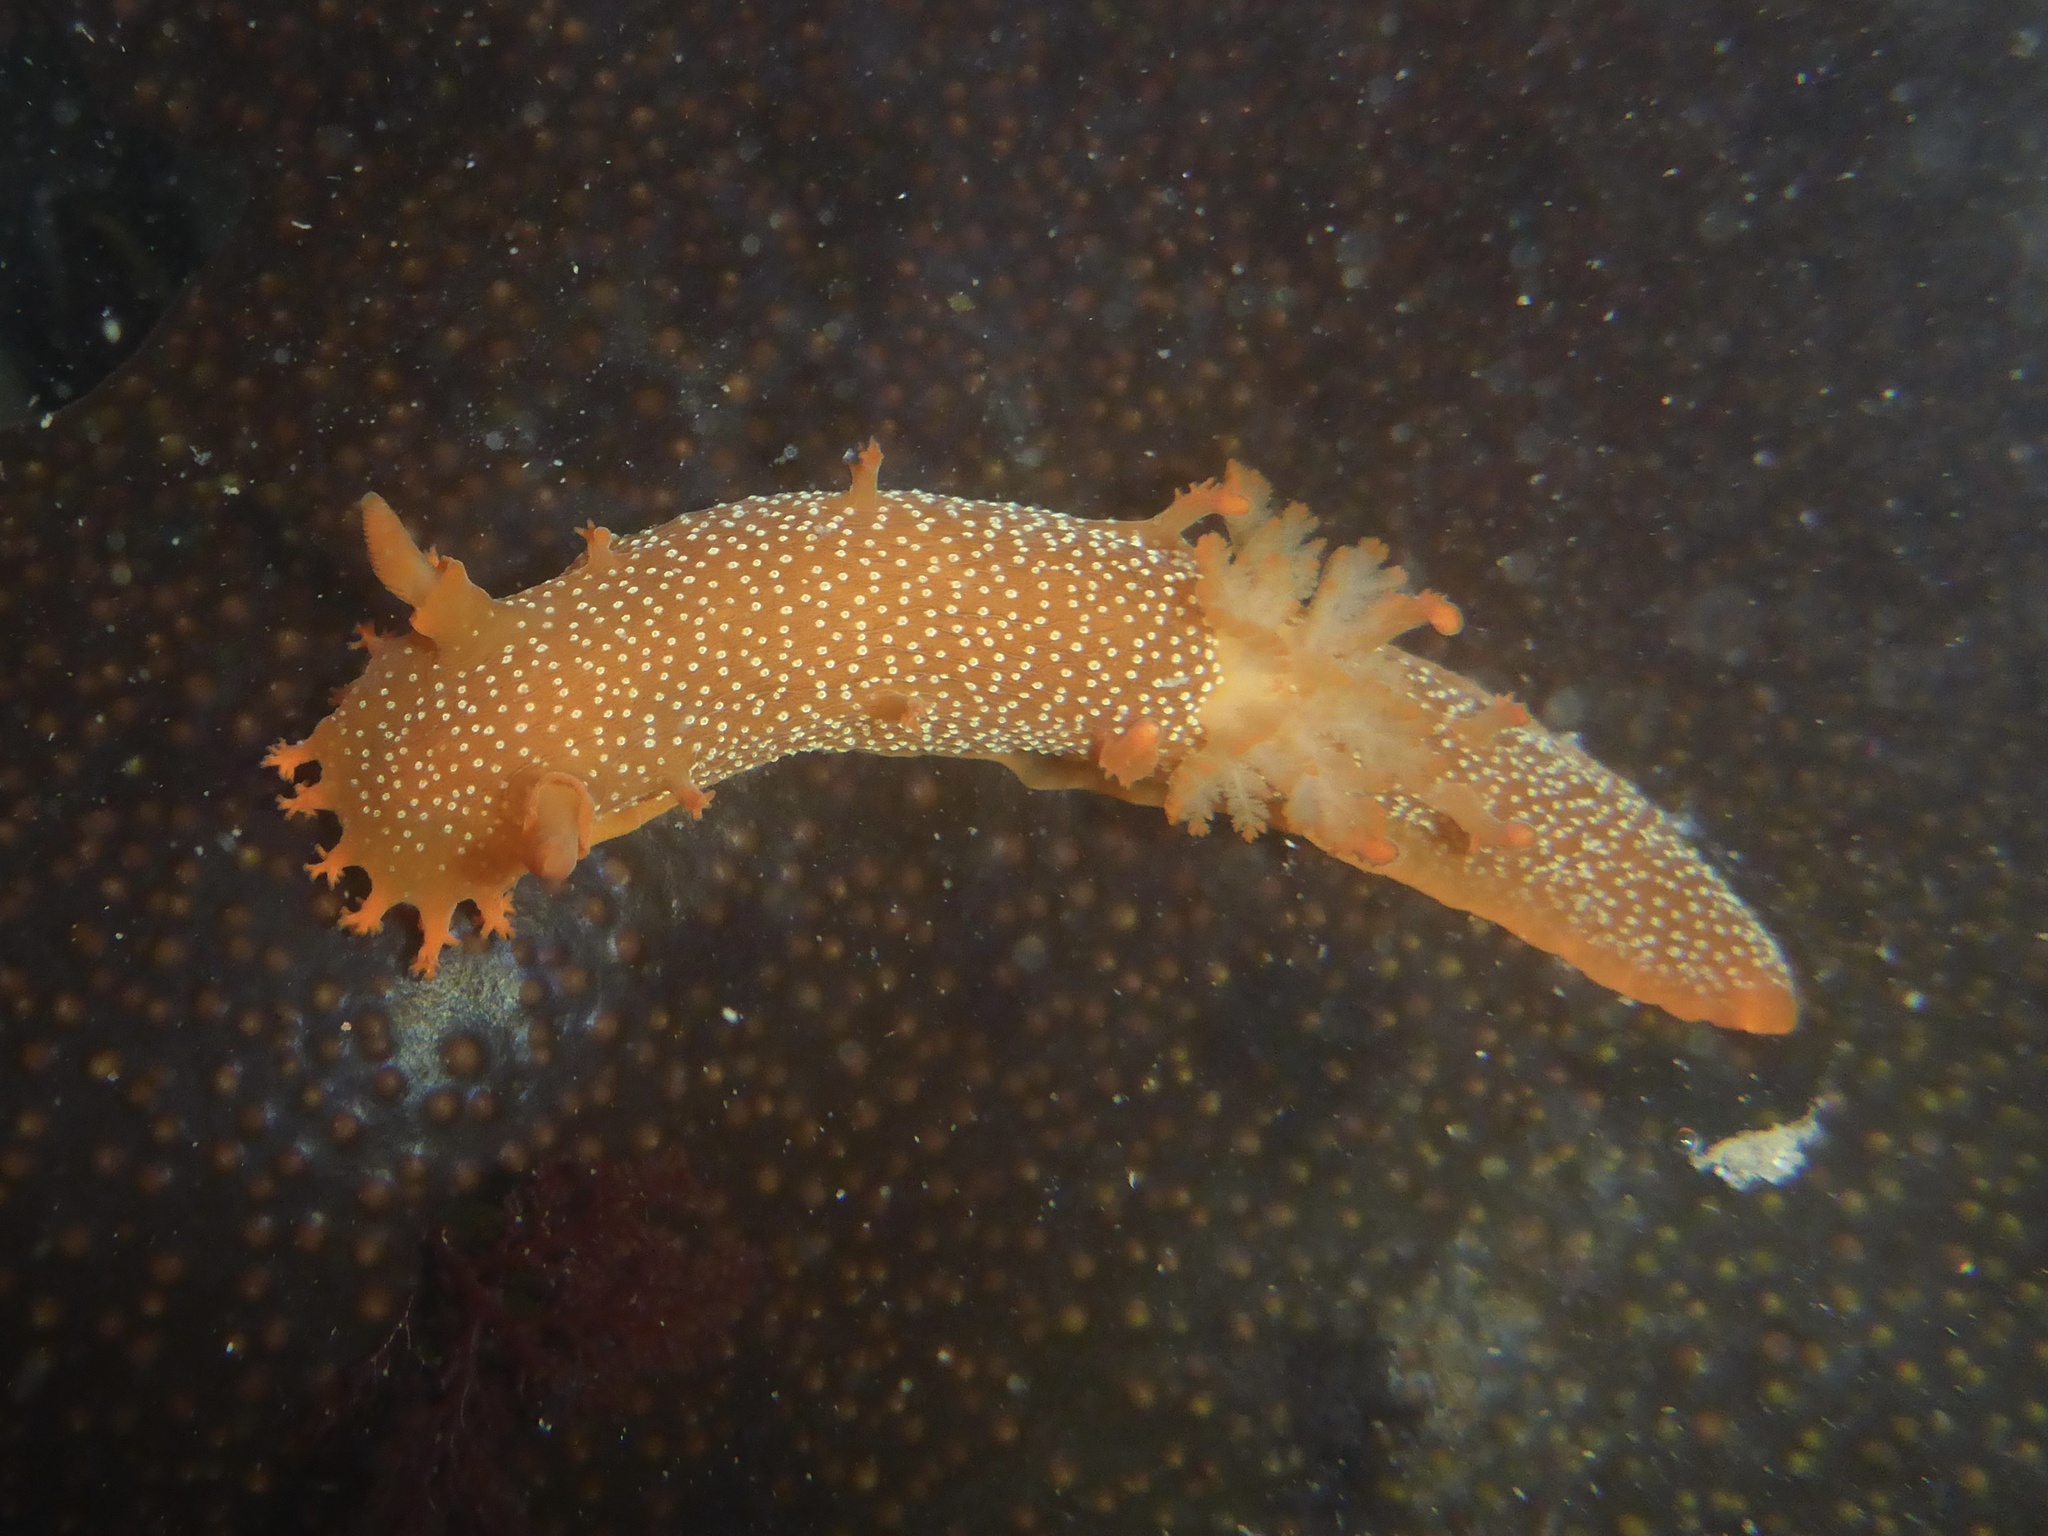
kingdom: Animalia
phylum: Mollusca
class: Gastropoda
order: Nudibranchia
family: Polyceridae
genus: Triopha
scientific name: Triopha maculata
